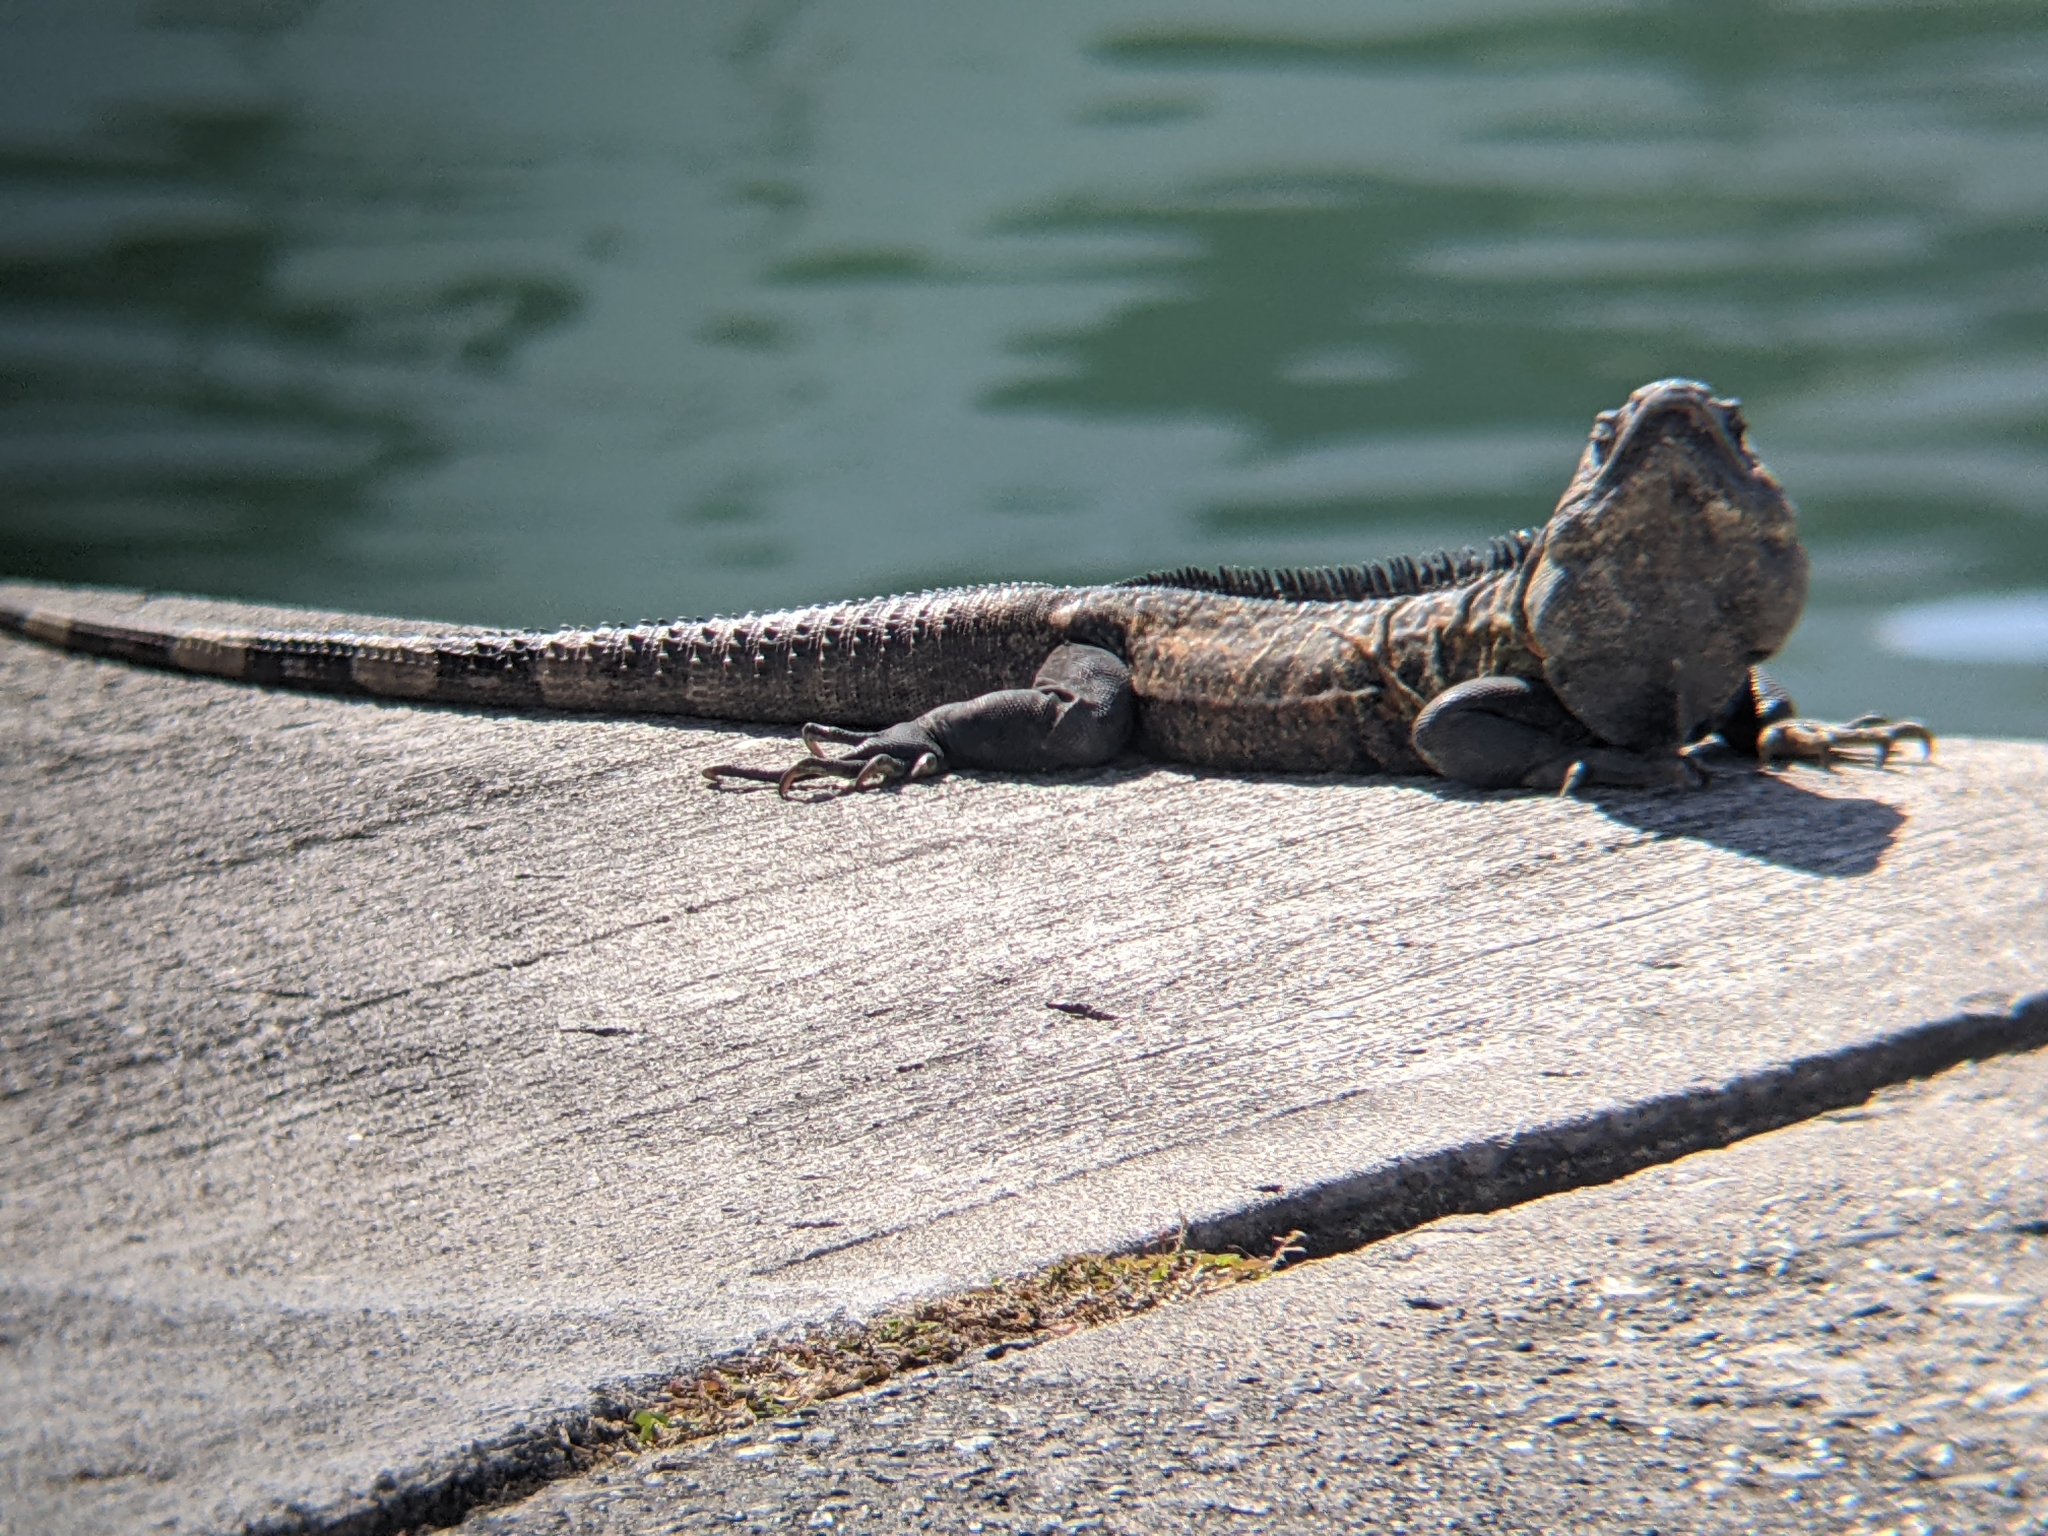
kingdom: Animalia
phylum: Chordata
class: Squamata
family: Iguanidae
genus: Ctenosaura
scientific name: Ctenosaura pectinata
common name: Guerreran spiny-tailed iguana
